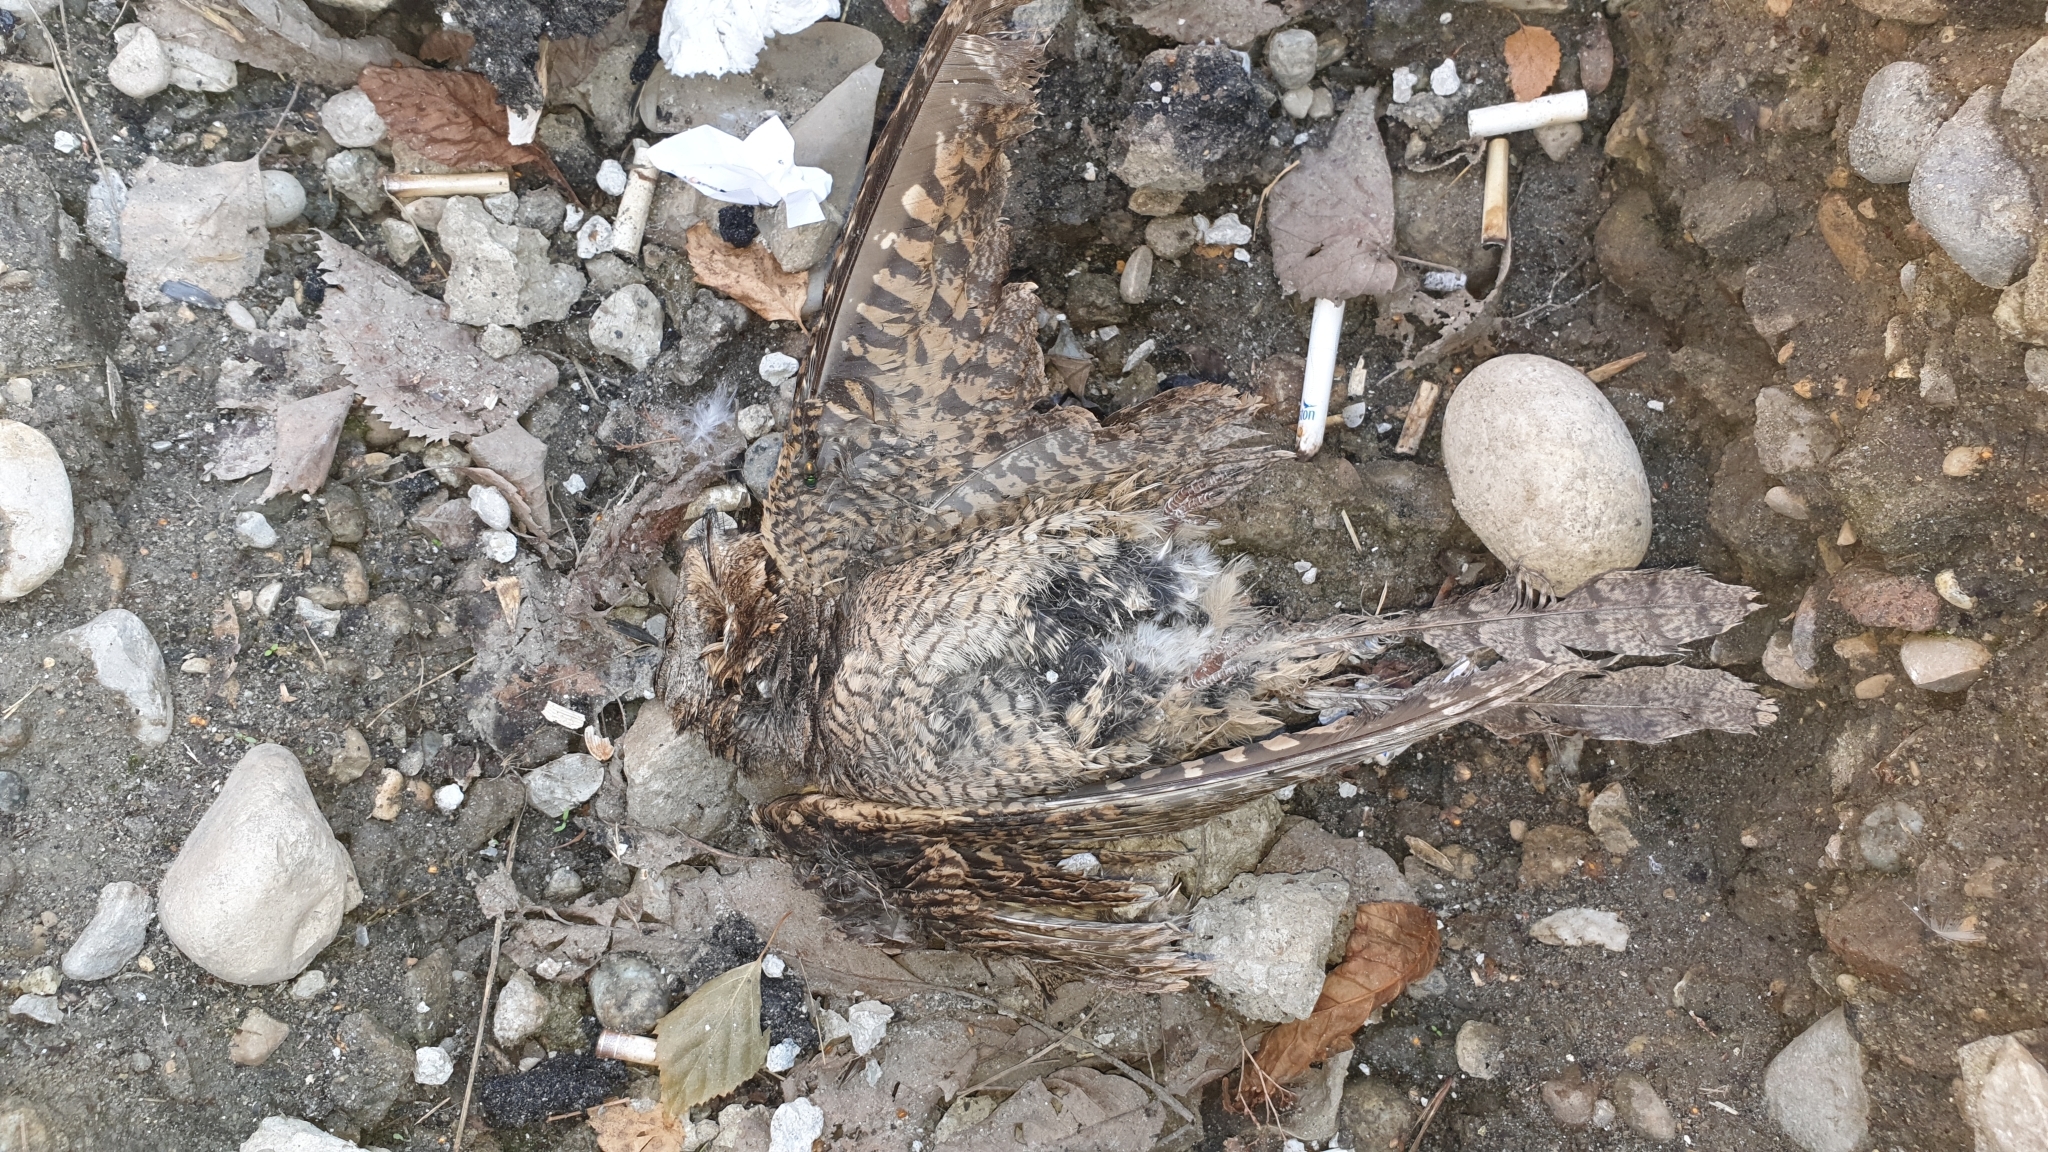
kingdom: Animalia
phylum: Chordata
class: Aves
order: Caprimulgiformes
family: Caprimulgidae
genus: Caprimulgus
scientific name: Caprimulgus europaeus
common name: European nightjar
